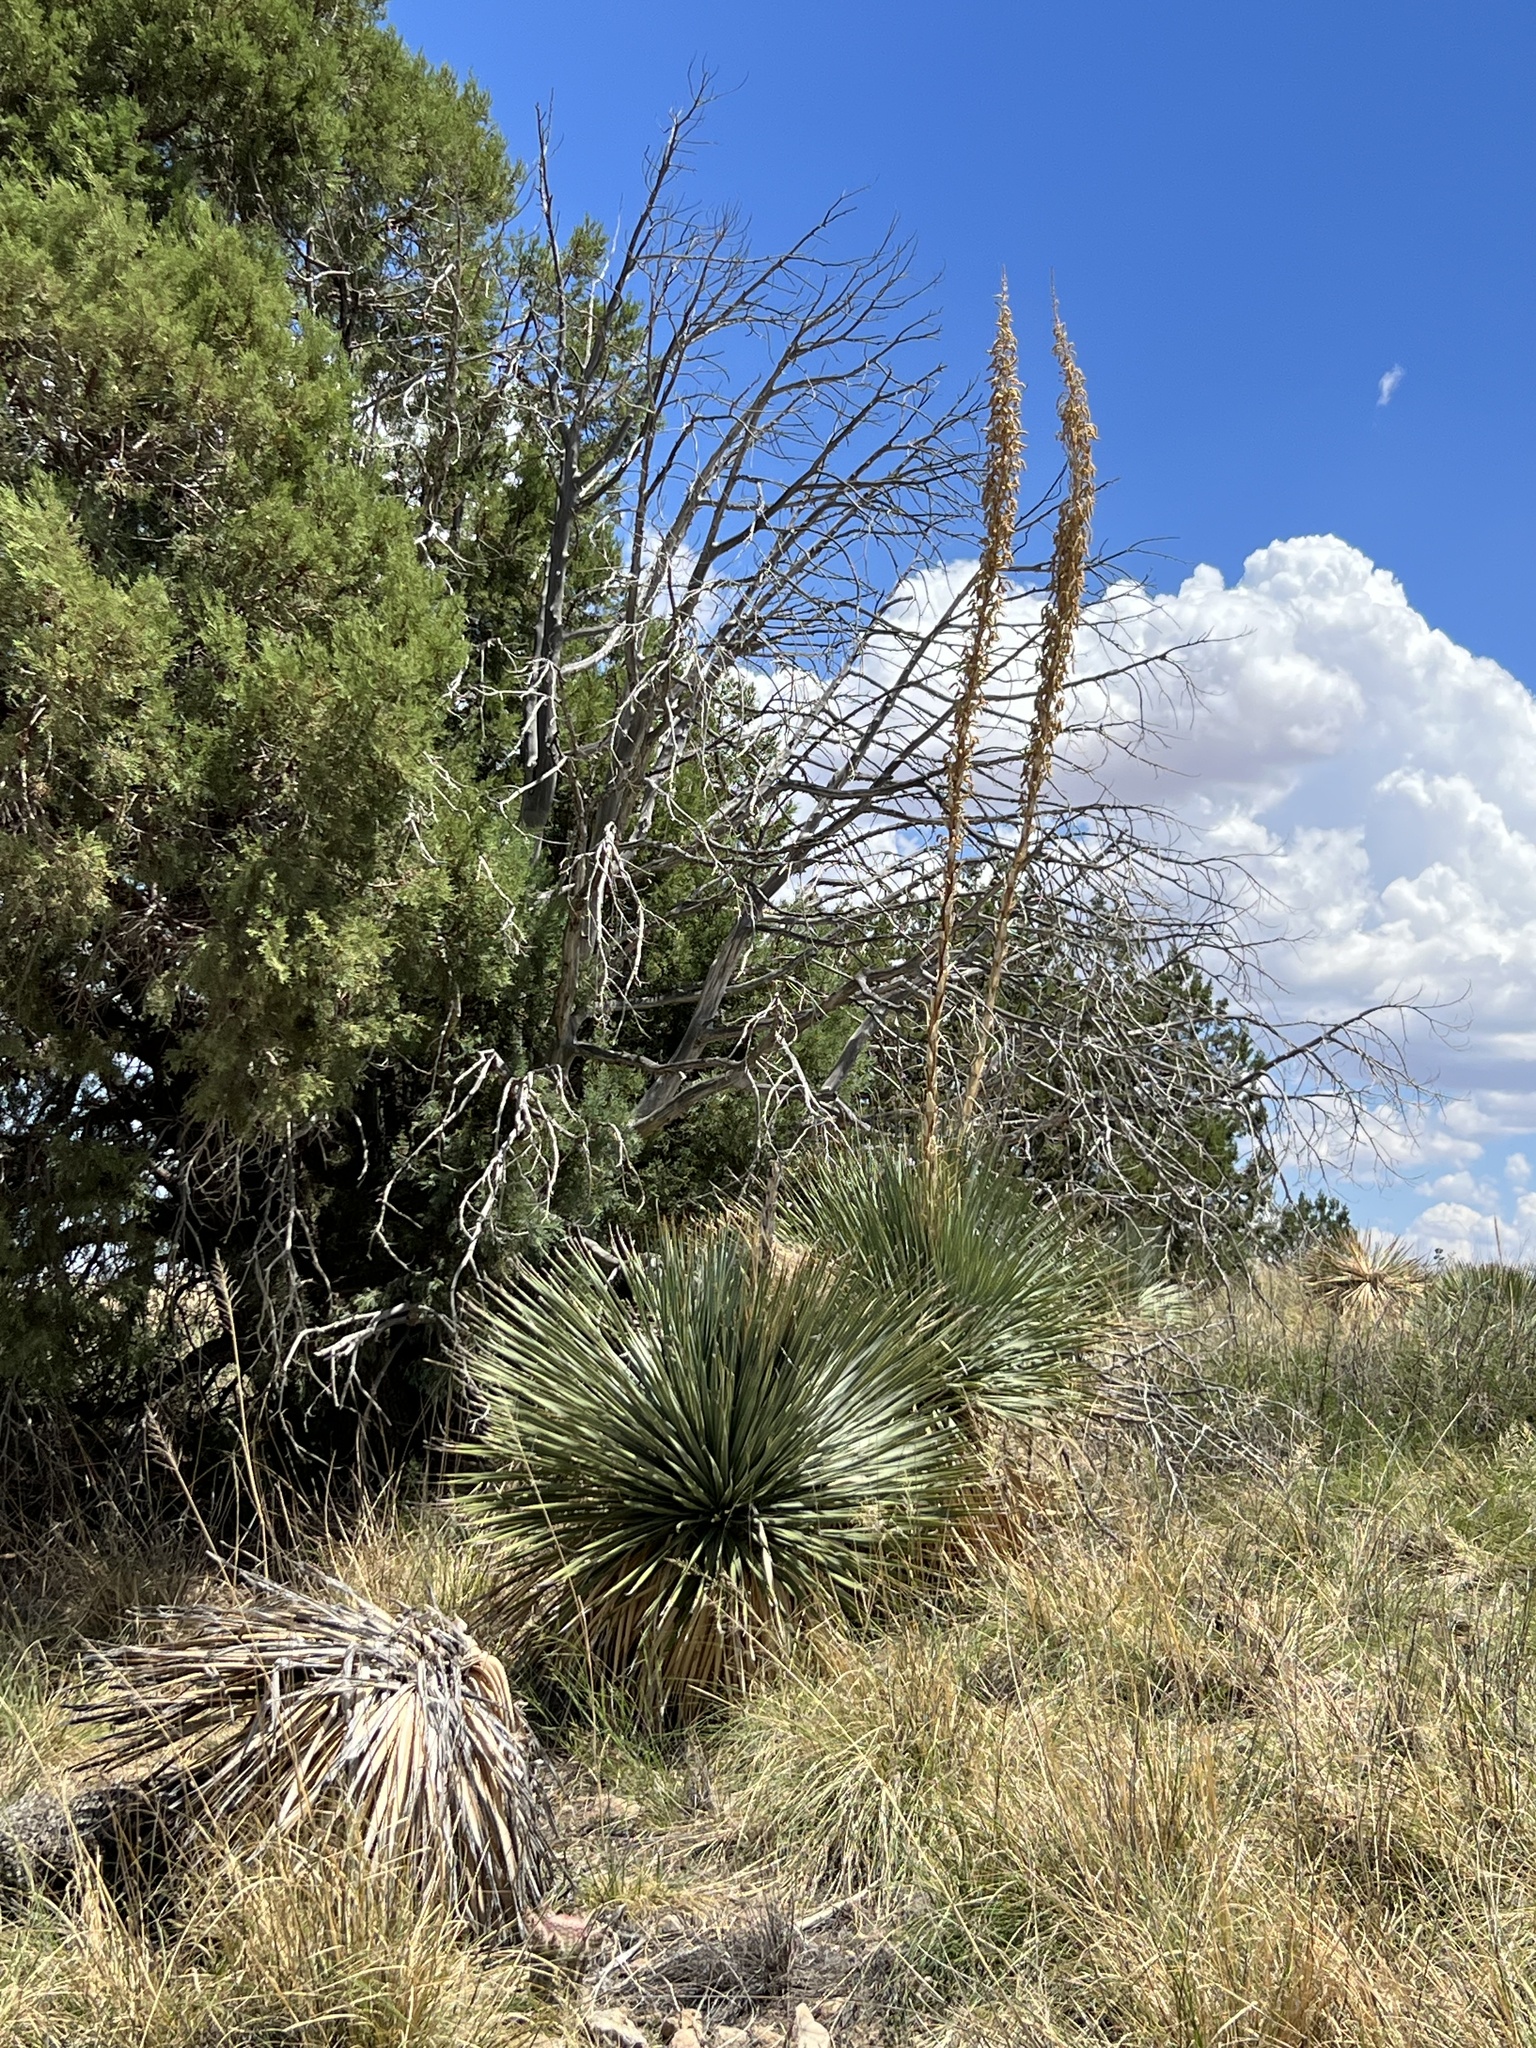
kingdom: Plantae
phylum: Tracheophyta
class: Liliopsida
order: Asparagales
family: Asparagaceae
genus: Dasylirion
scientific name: Dasylirion wheeleri
